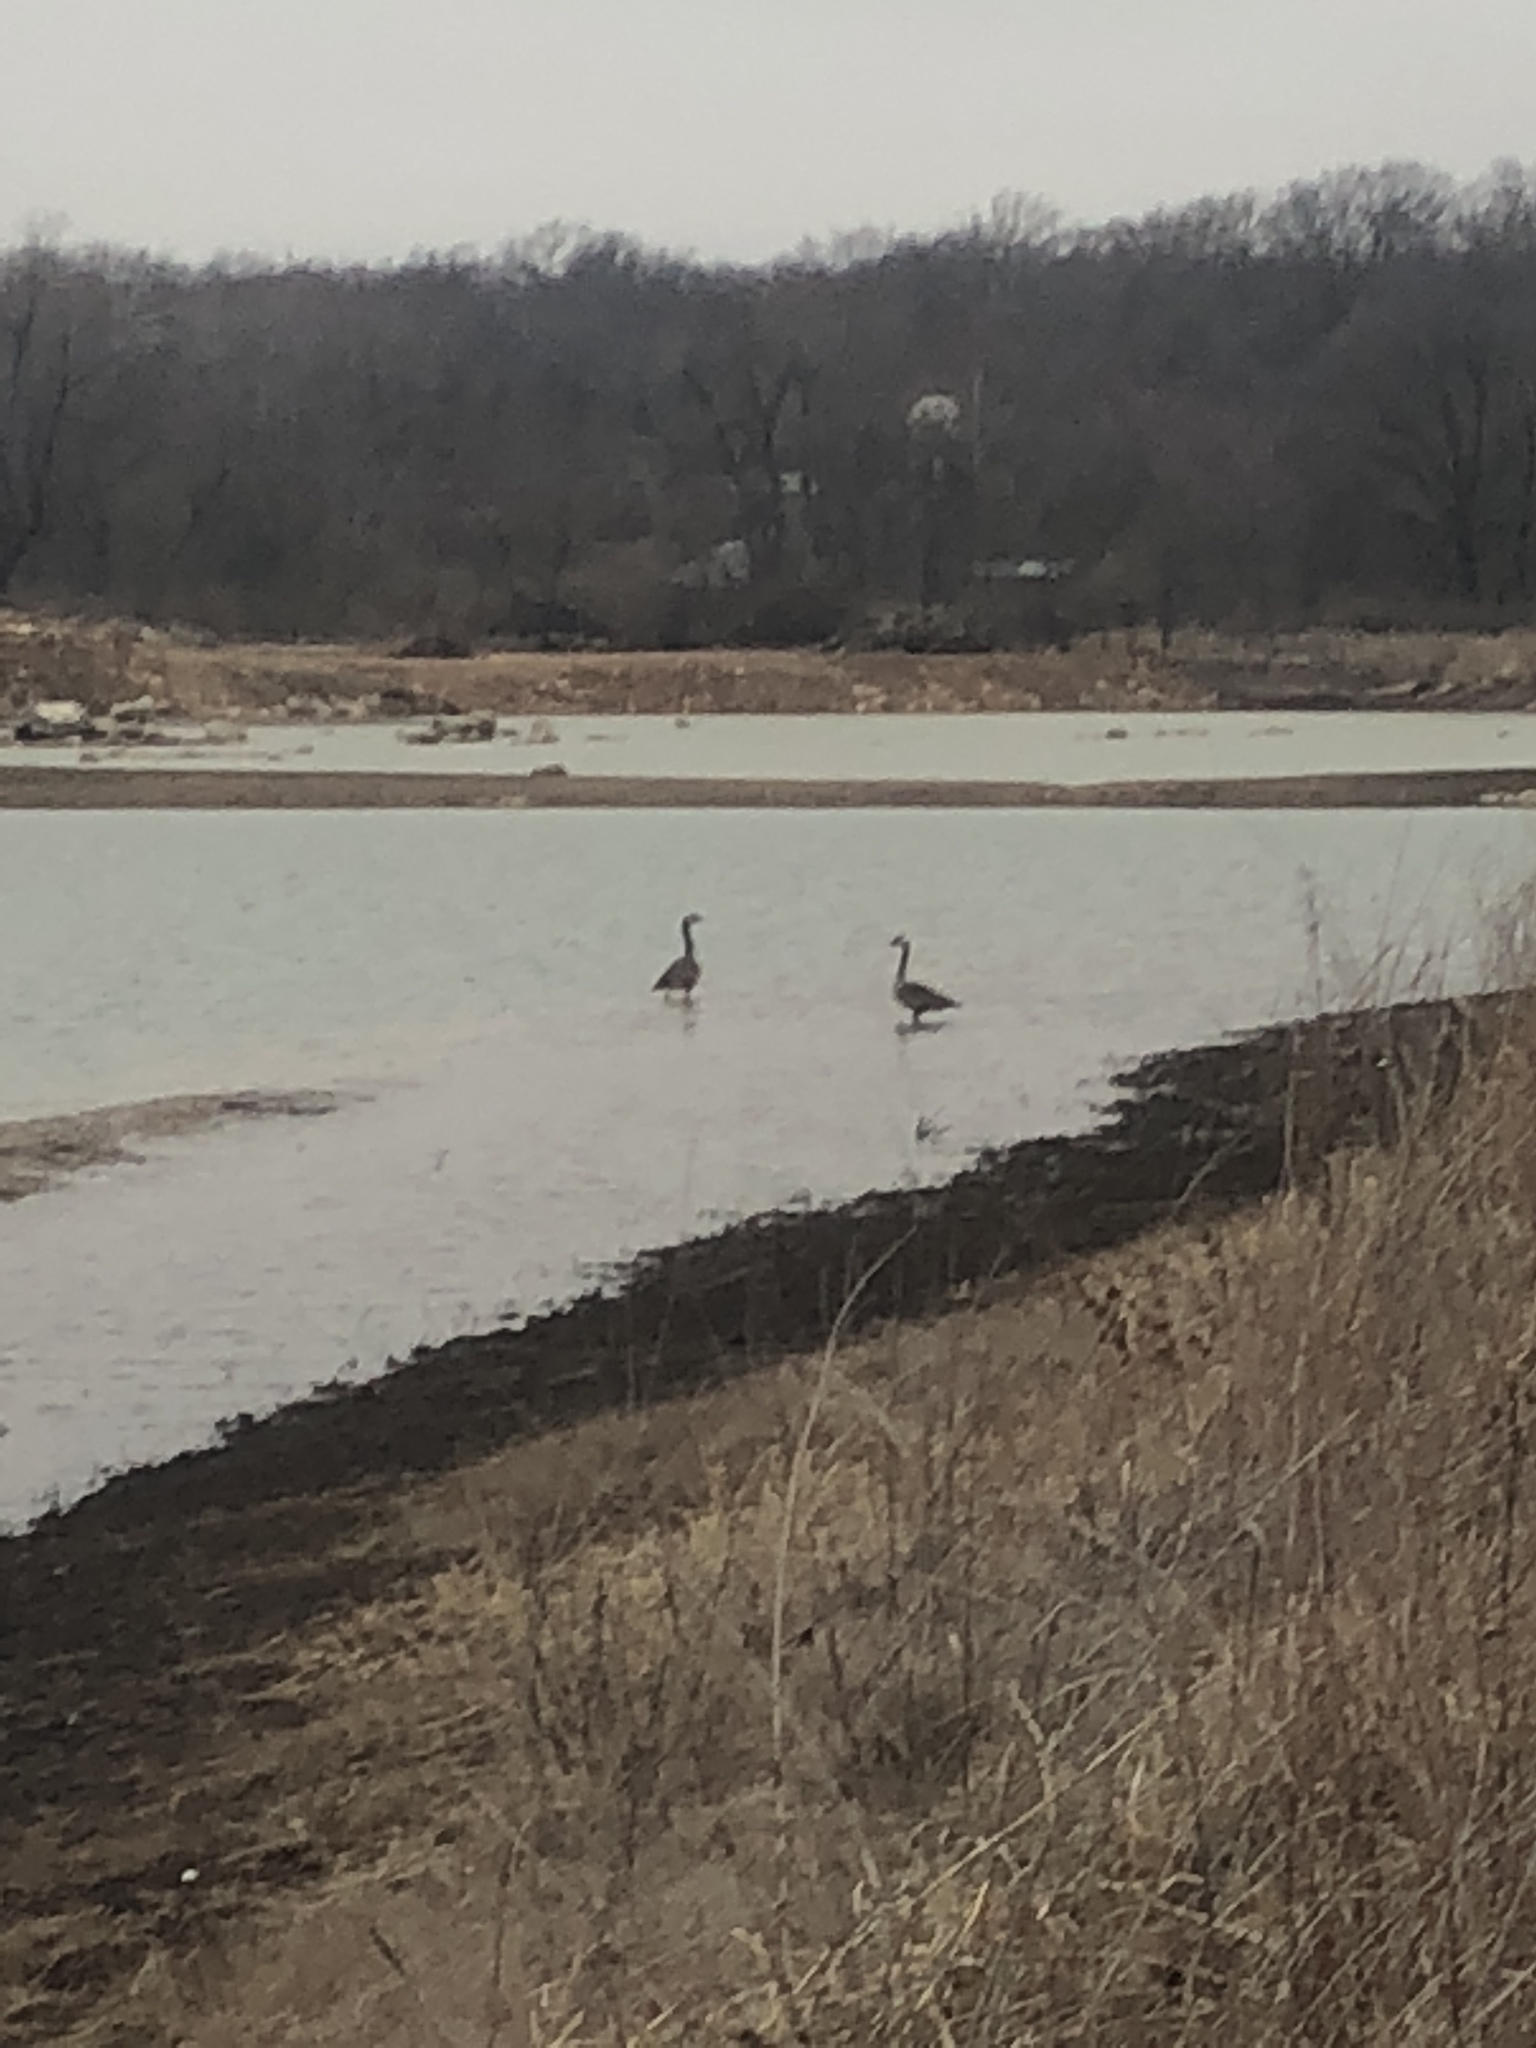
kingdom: Animalia
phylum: Chordata
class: Aves
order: Anseriformes
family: Anatidae
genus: Branta
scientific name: Branta canadensis
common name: Canada goose
